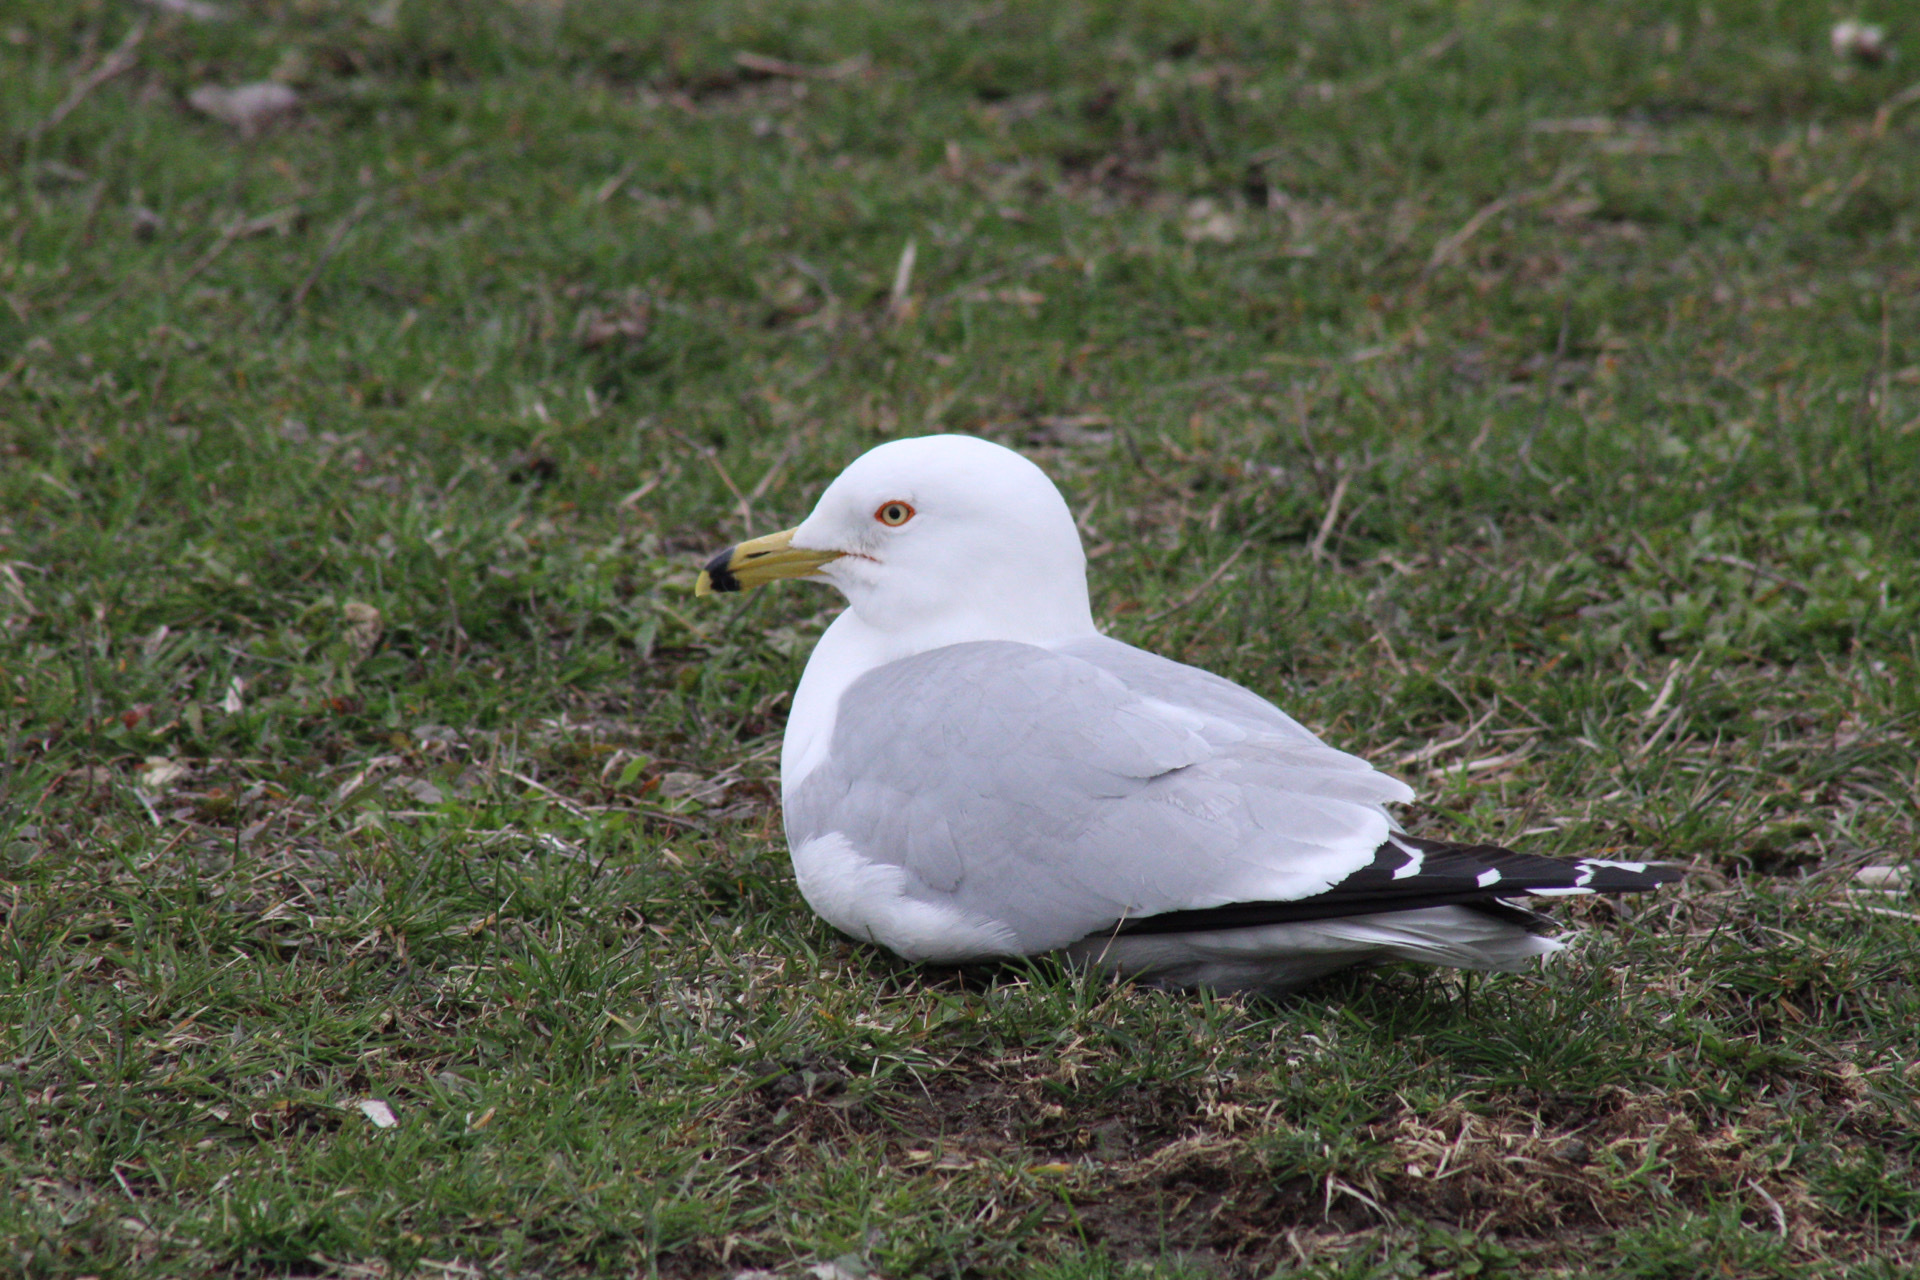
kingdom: Animalia
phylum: Chordata
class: Aves
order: Charadriiformes
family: Laridae
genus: Larus
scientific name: Larus delawarensis
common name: Ring-billed gull
